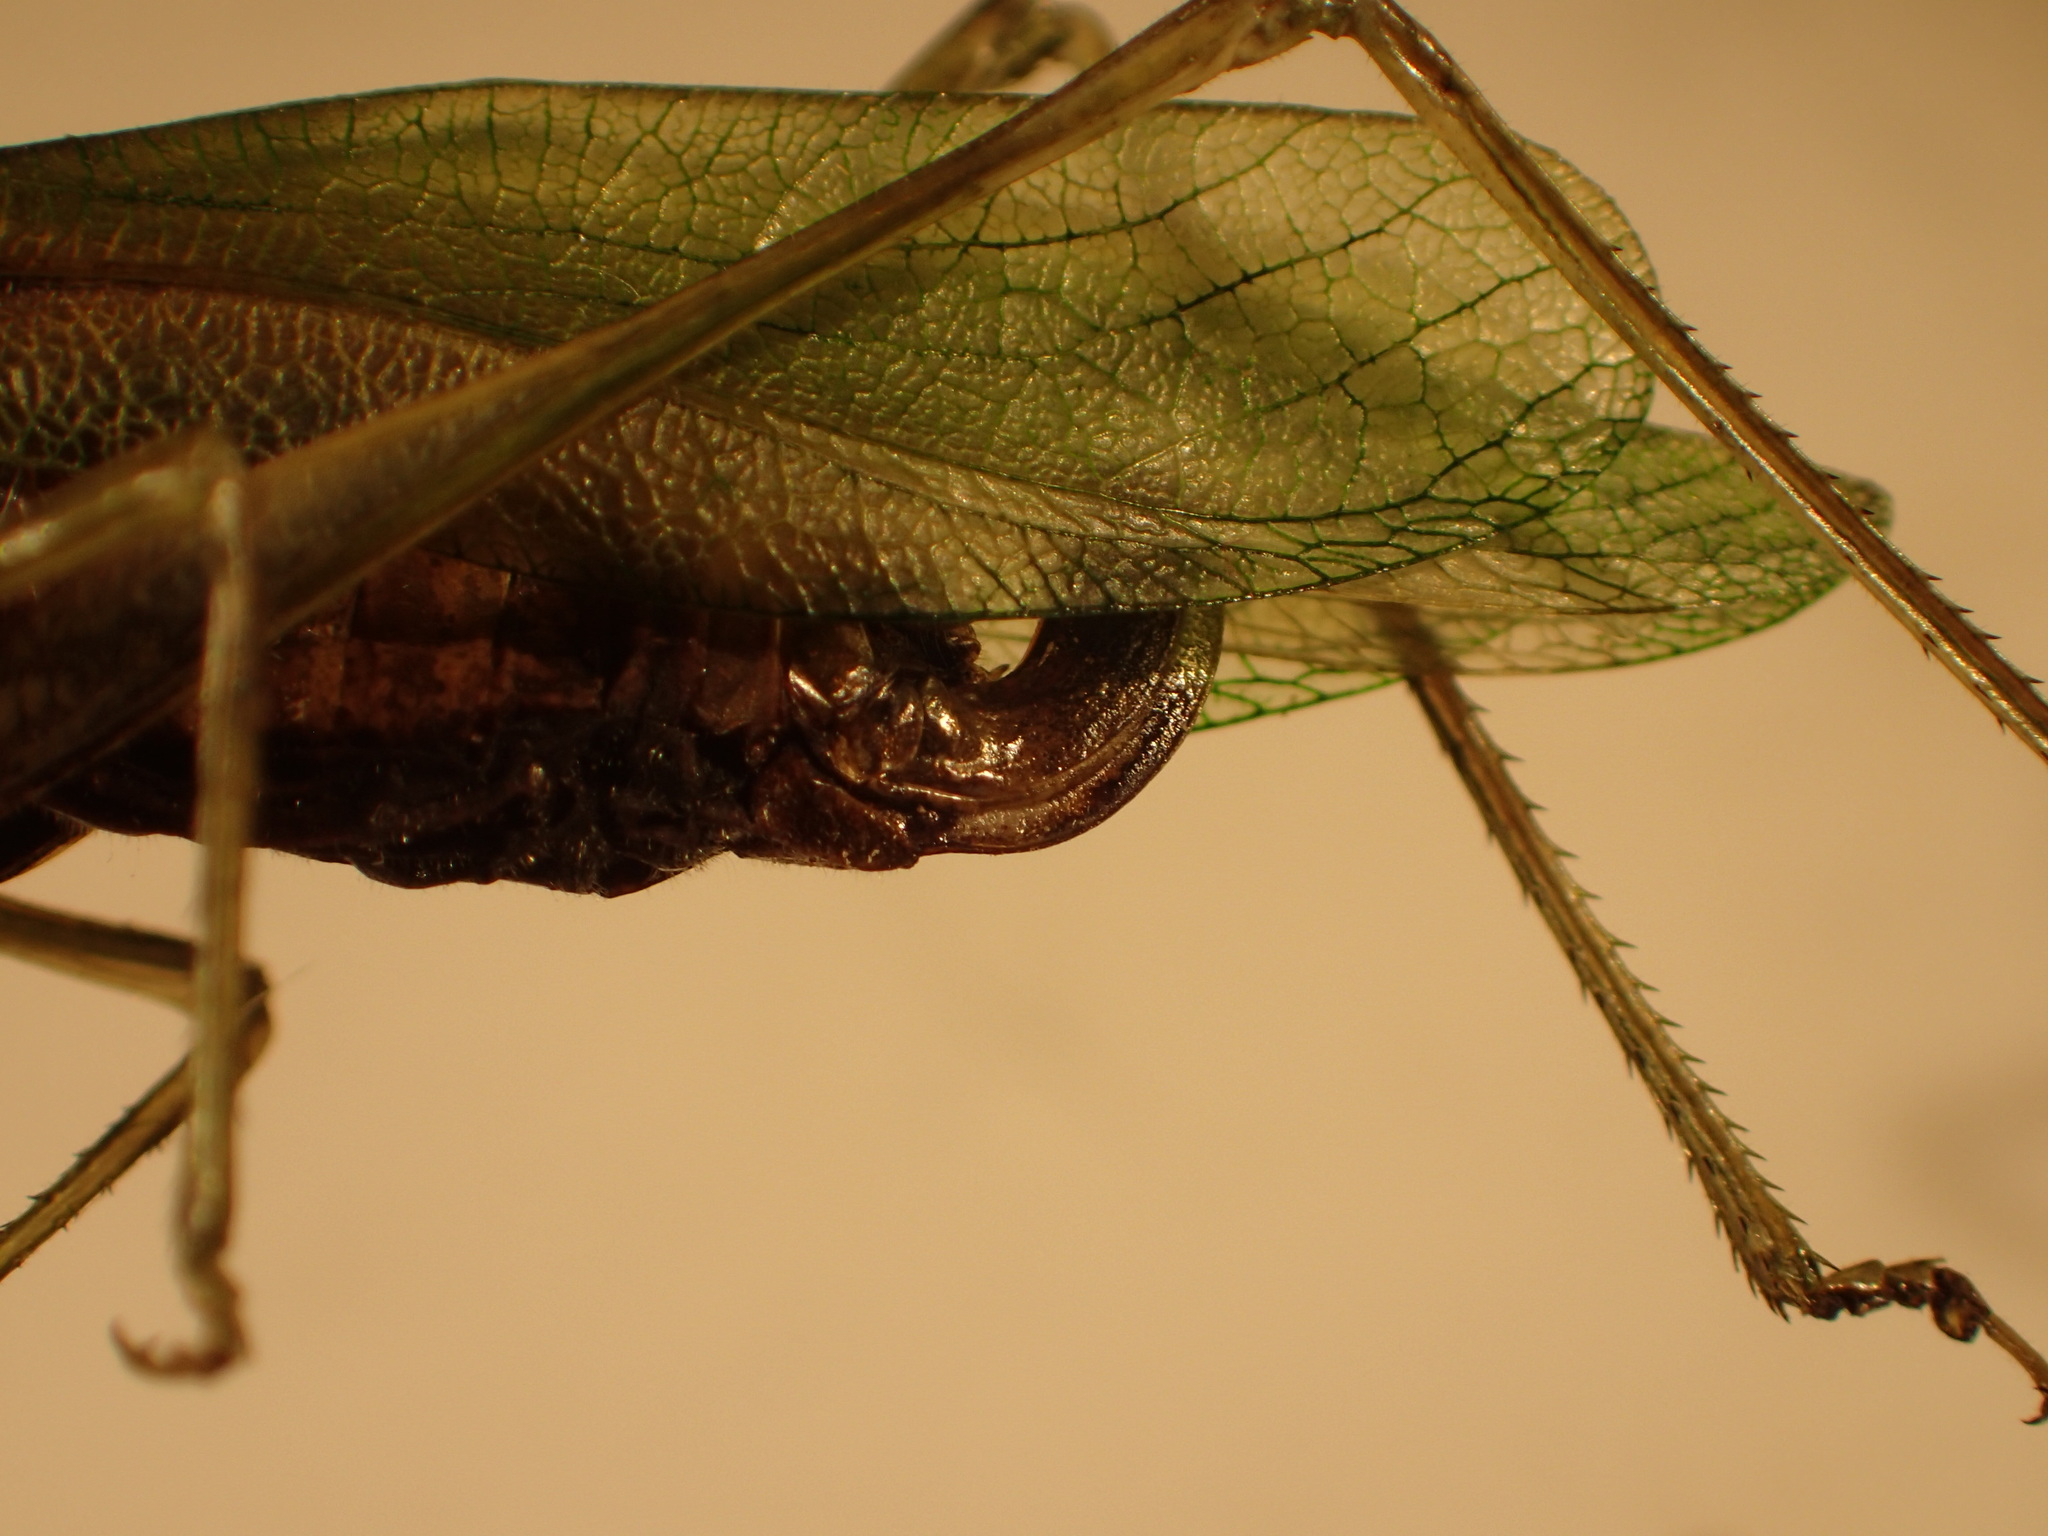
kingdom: Animalia
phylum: Arthropoda
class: Insecta
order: Orthoptera
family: Tettigoniidae
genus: Scudderia
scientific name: Scudderia pistillata
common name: Broad-winged bush-katydid
